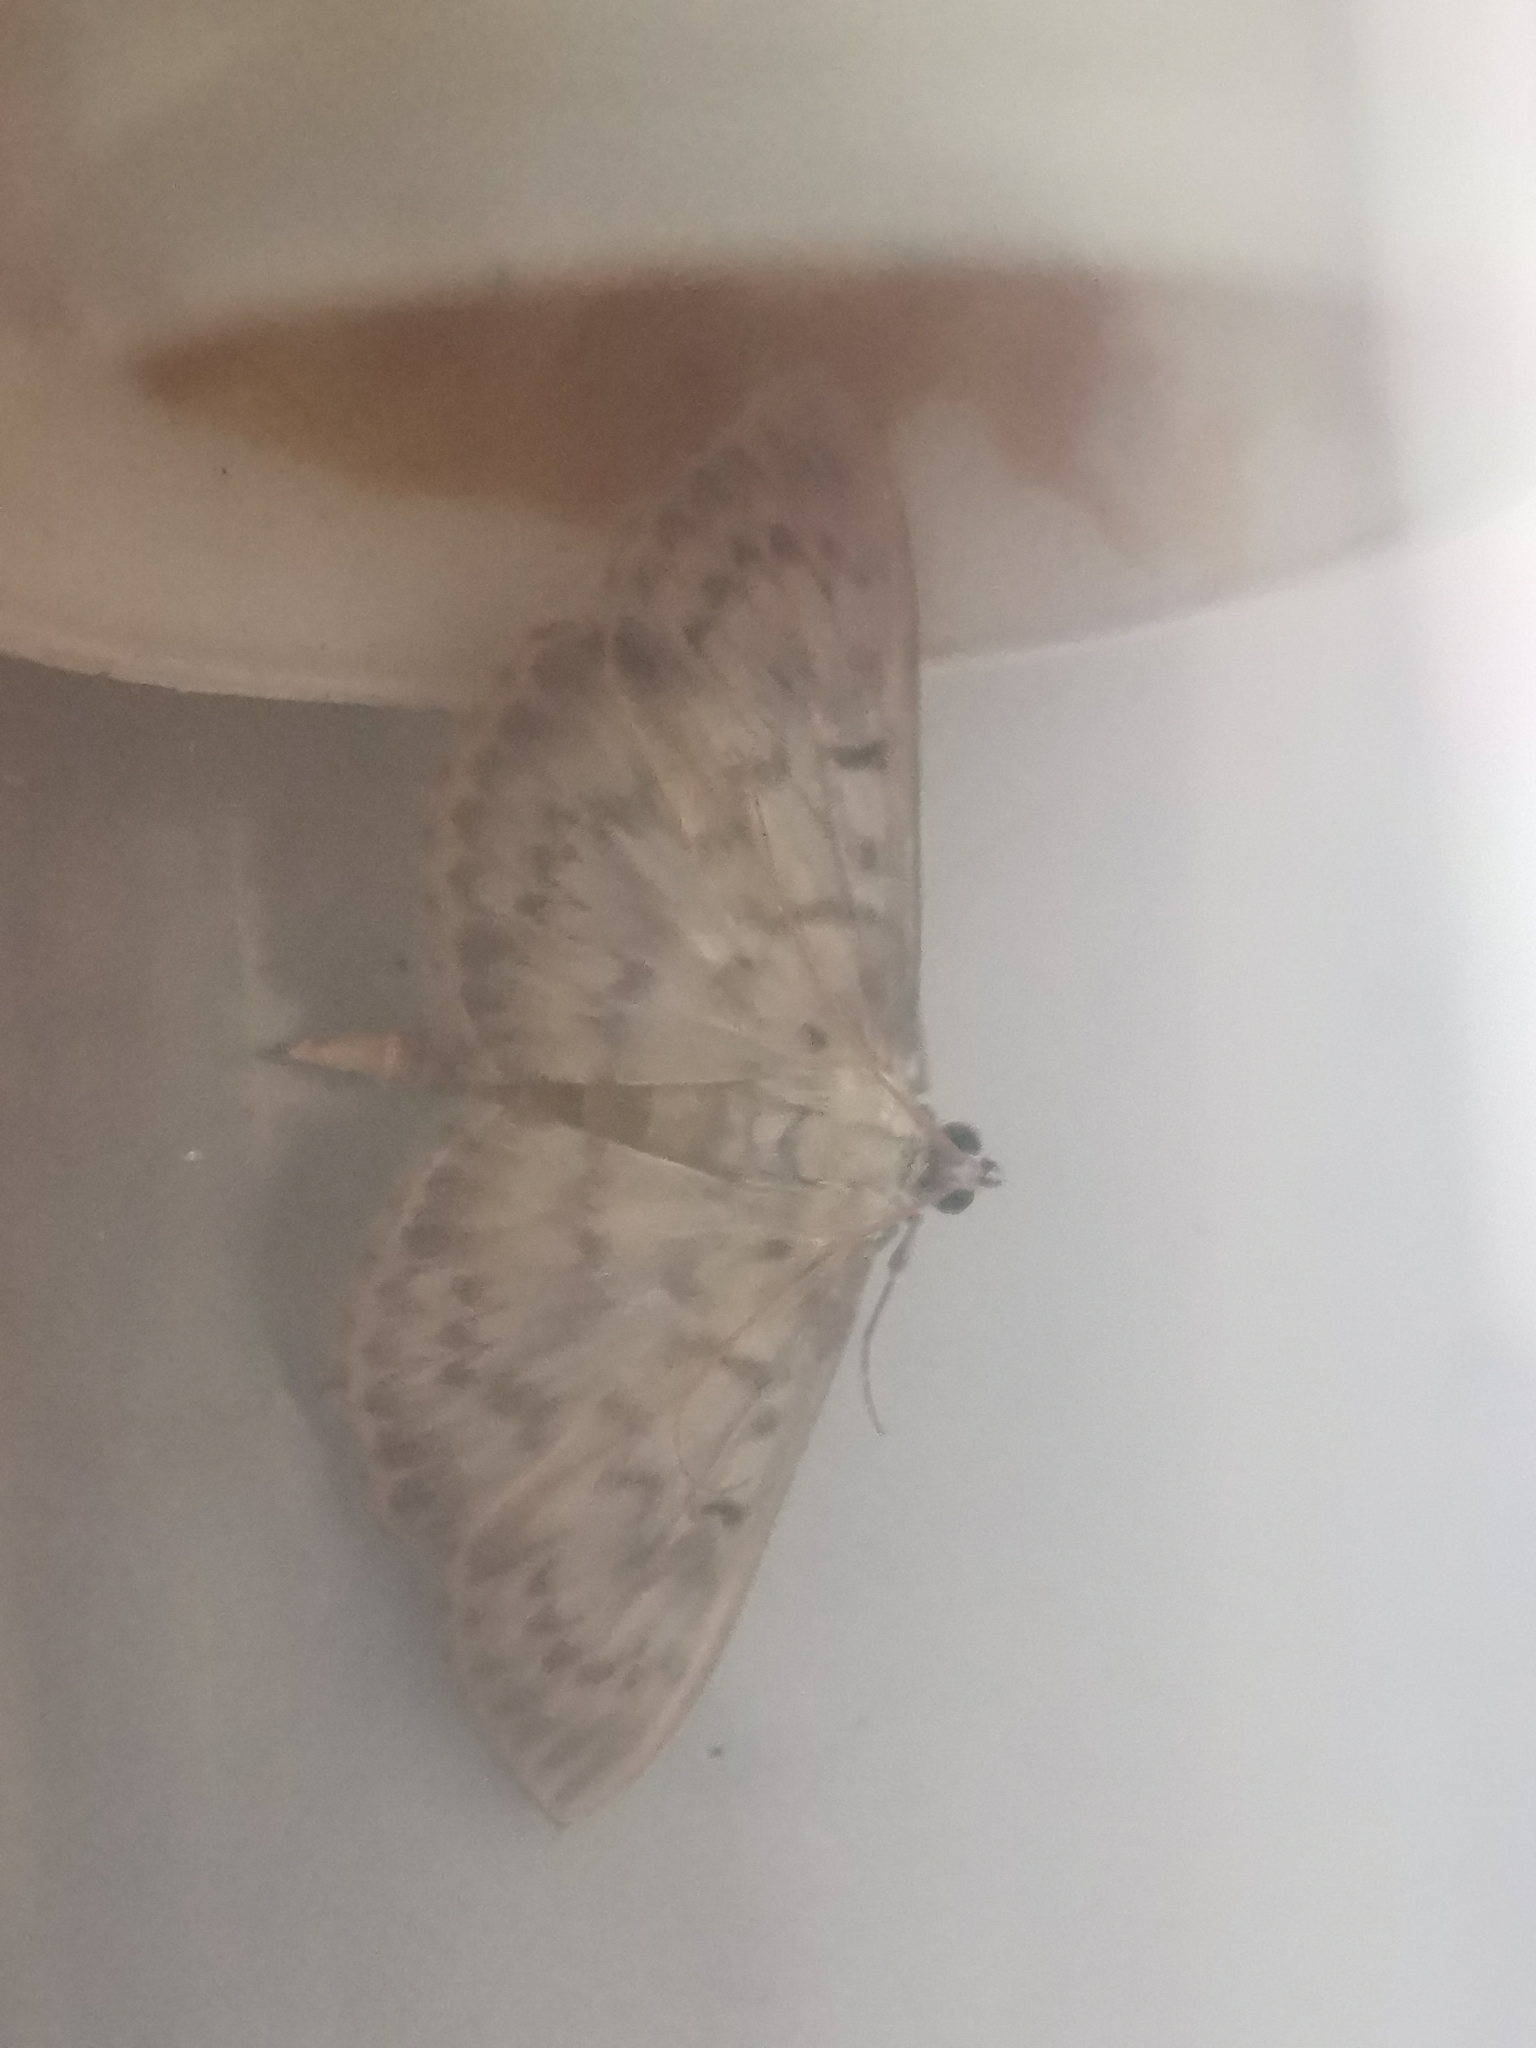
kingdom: Animalia
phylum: Arthropoda
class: Insecta
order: Lepidoptera
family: Crambidae
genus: Patania
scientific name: Patania ruralis
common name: Mother of pearl
